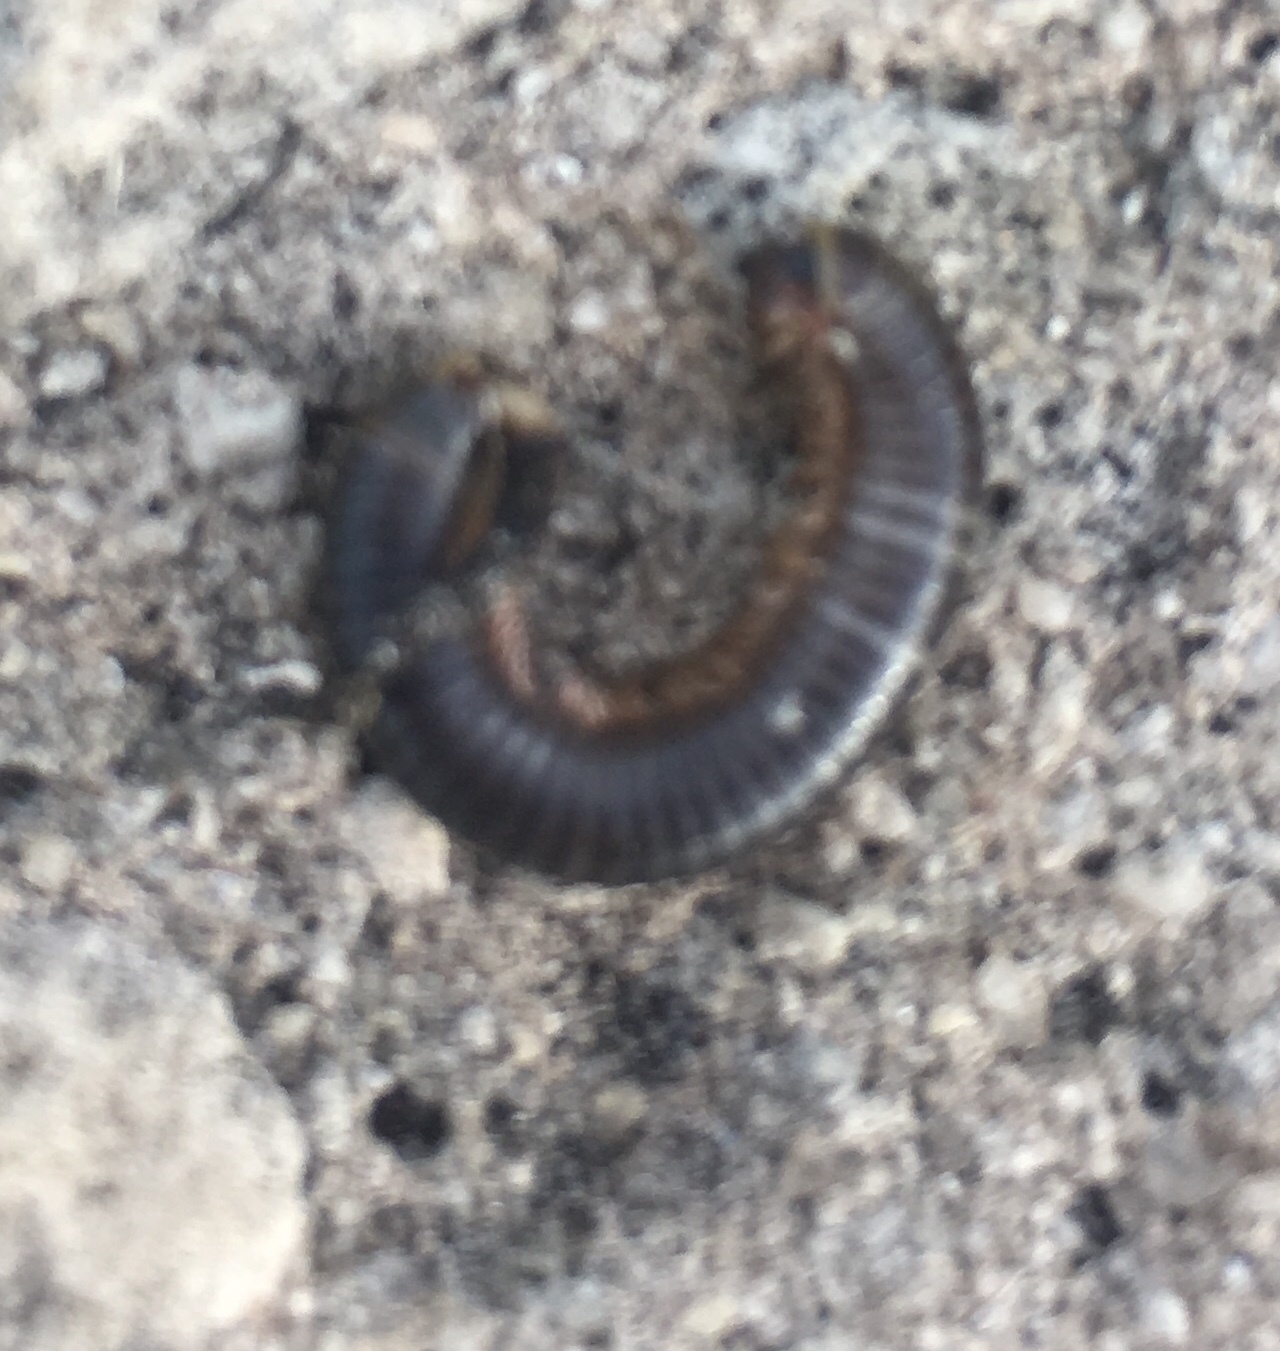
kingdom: Animalia
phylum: Arthropoda
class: Diplopoda
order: Spirobolida
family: Rhinocricidae
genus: Anadenobolus
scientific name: Anadenobolus monilicornis
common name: Caribbean millipede
